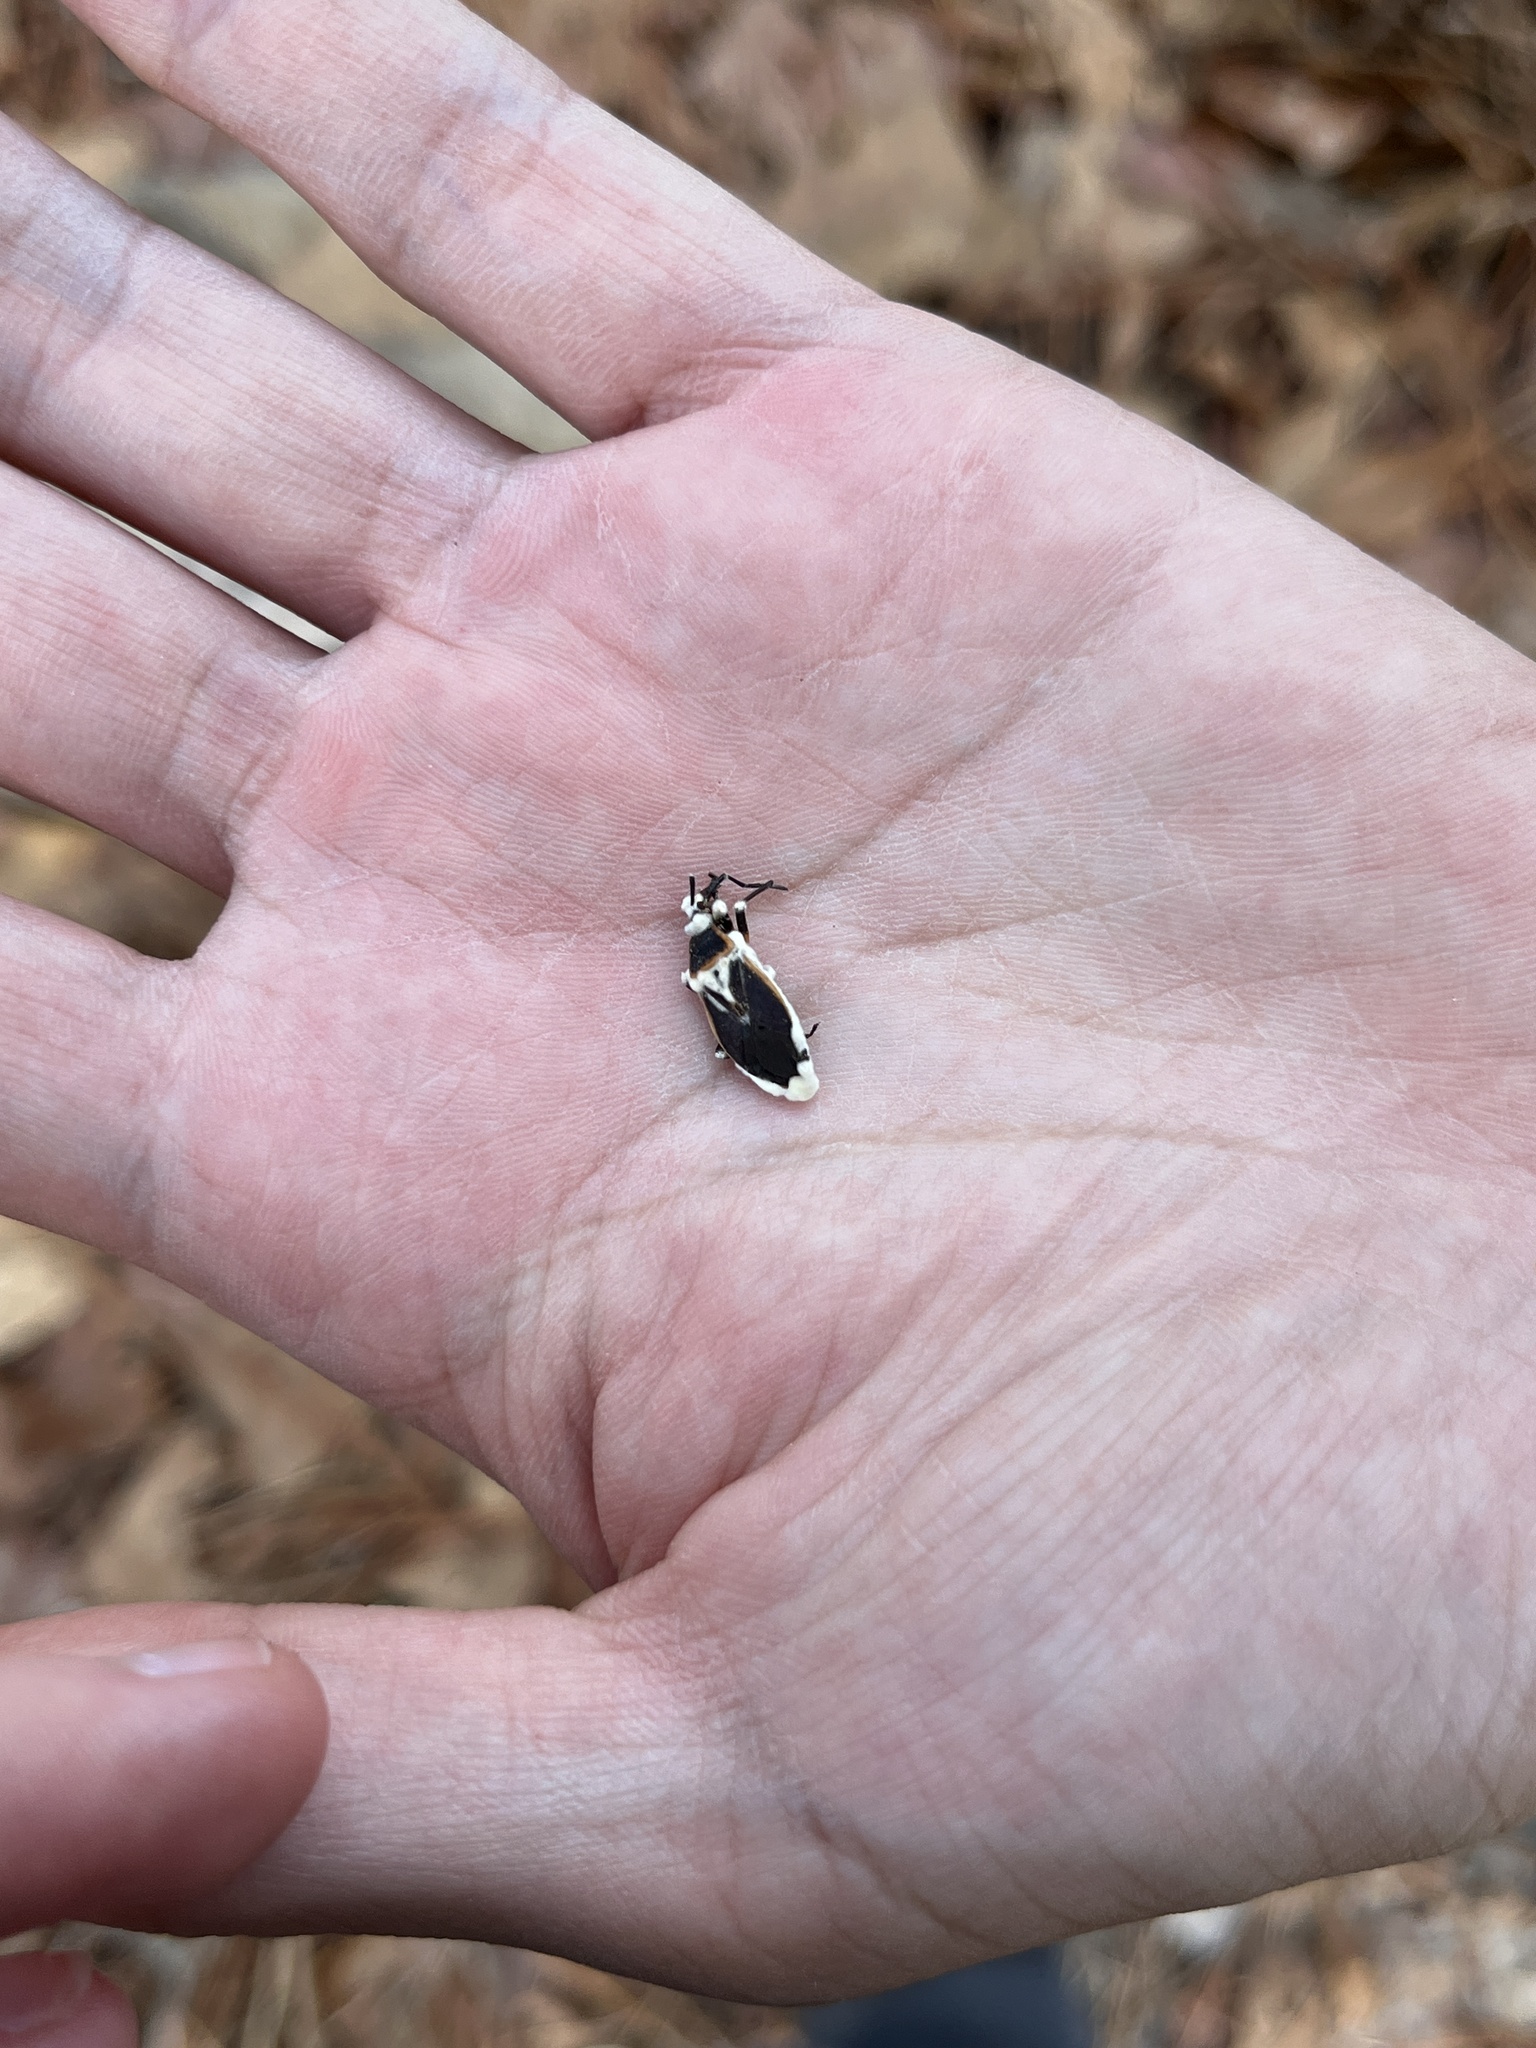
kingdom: Fungi
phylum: Ascomycota
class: Sordariomycetes
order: Hypocreales
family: Cordycipitaceae
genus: Beauveria
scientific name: Beauveria bassiana
